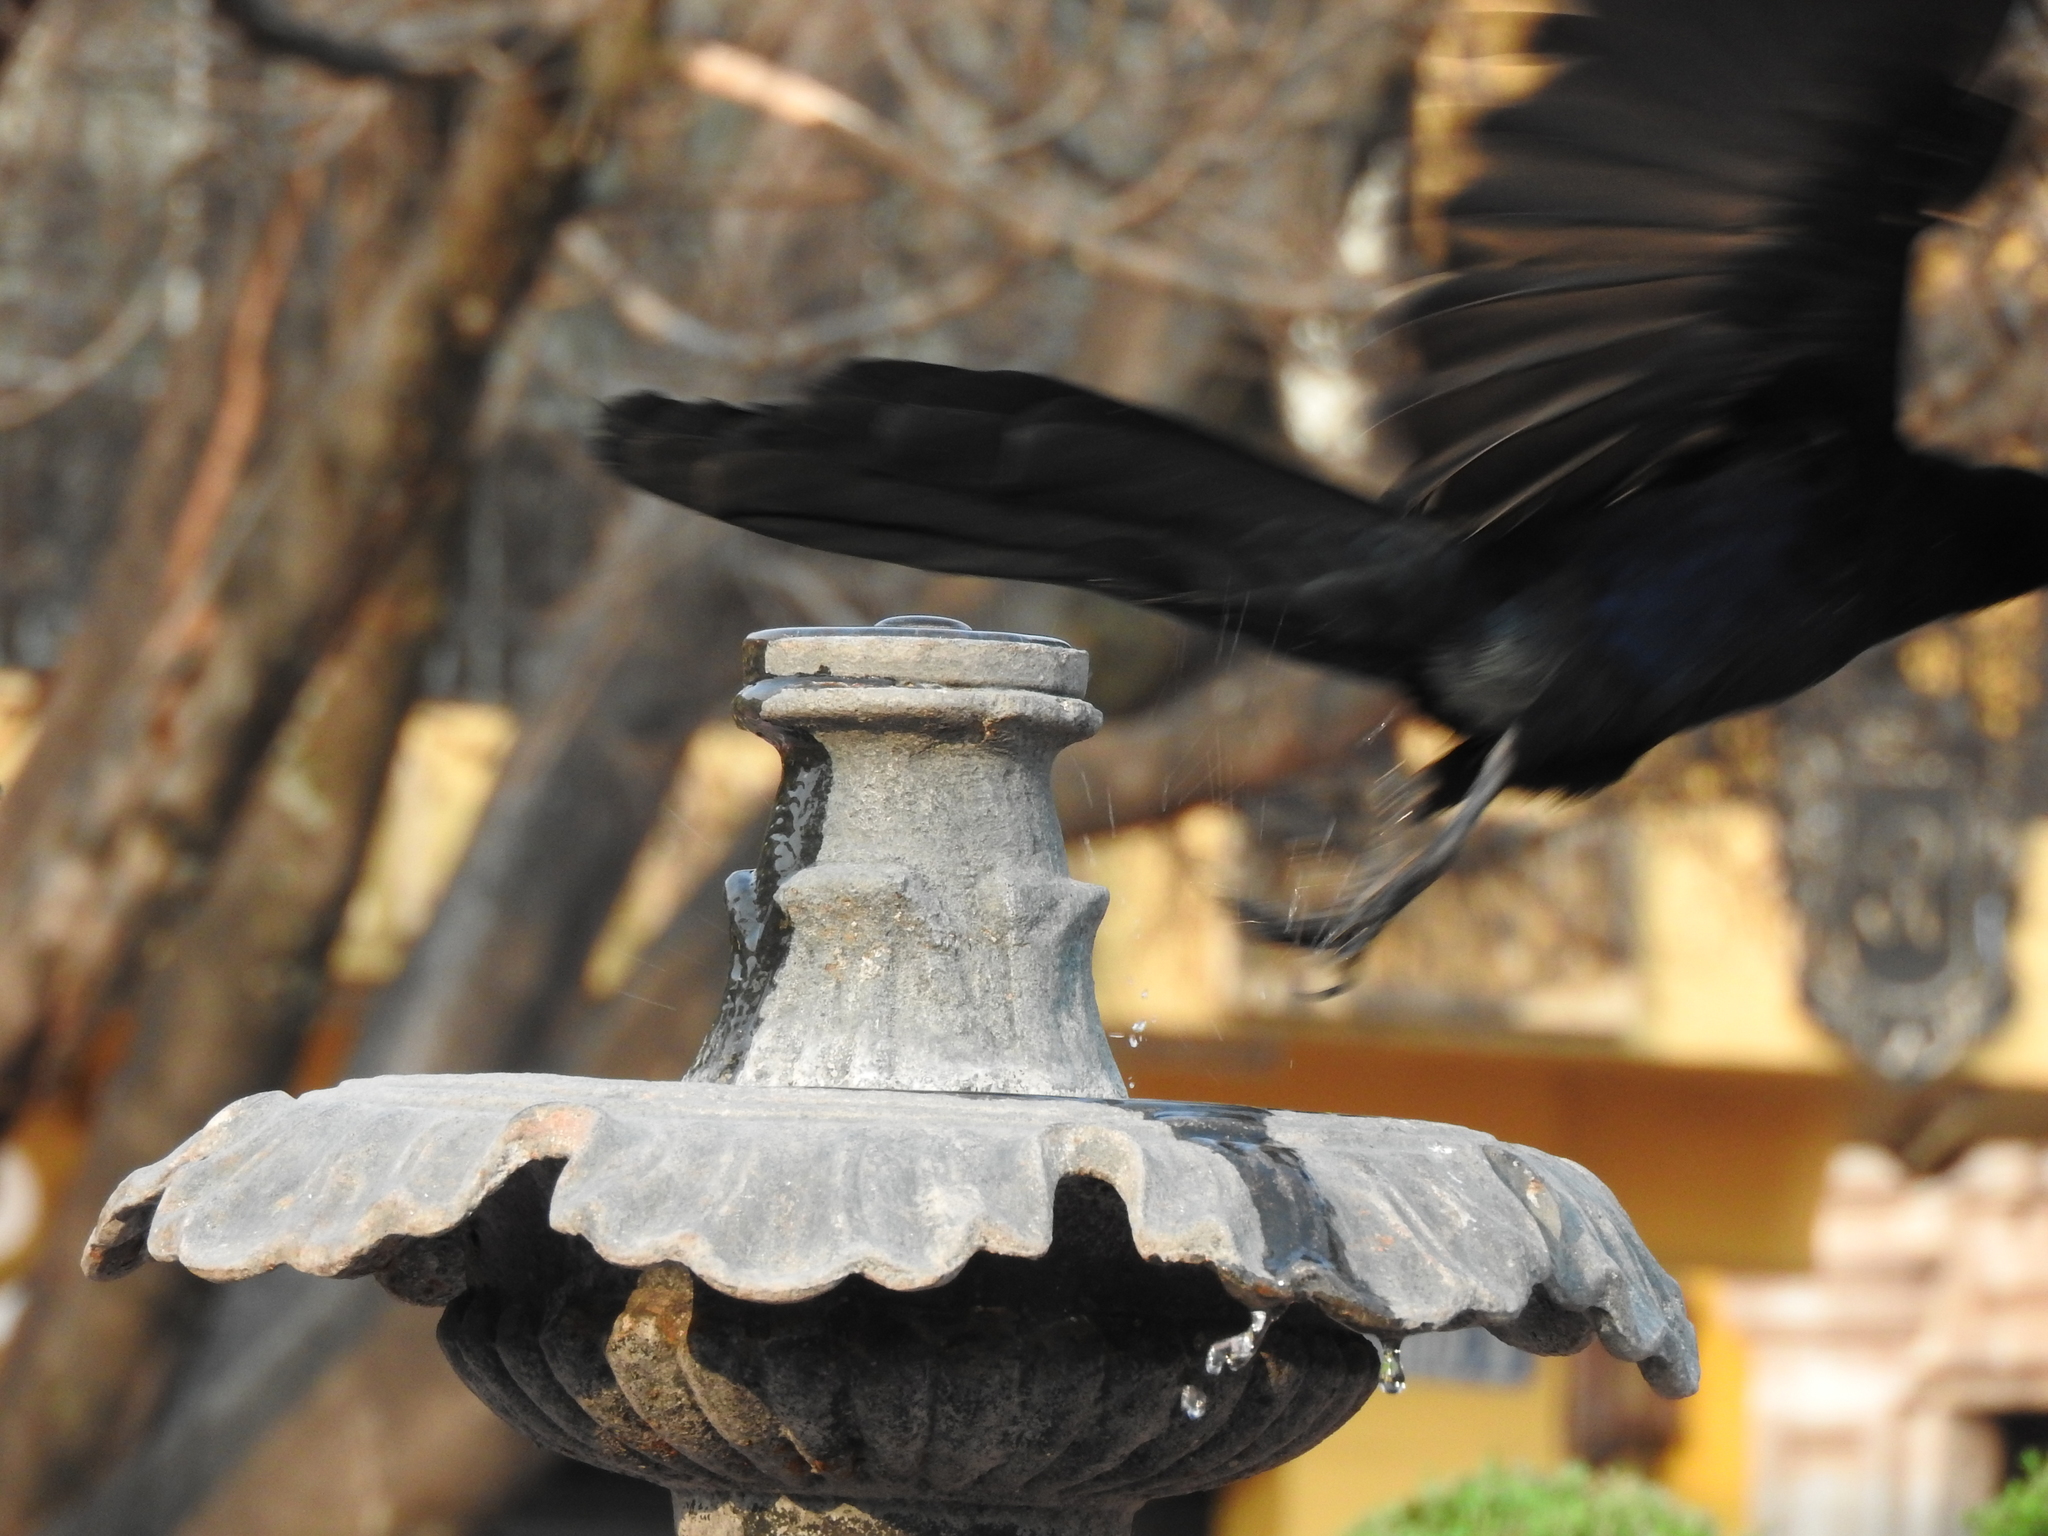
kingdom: Animalia
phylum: Chordata
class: Aves
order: Passeriformes
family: Icteridae
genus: Quiscalus
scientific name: Quiscalus mexicanus
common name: Great-tailed grackle
